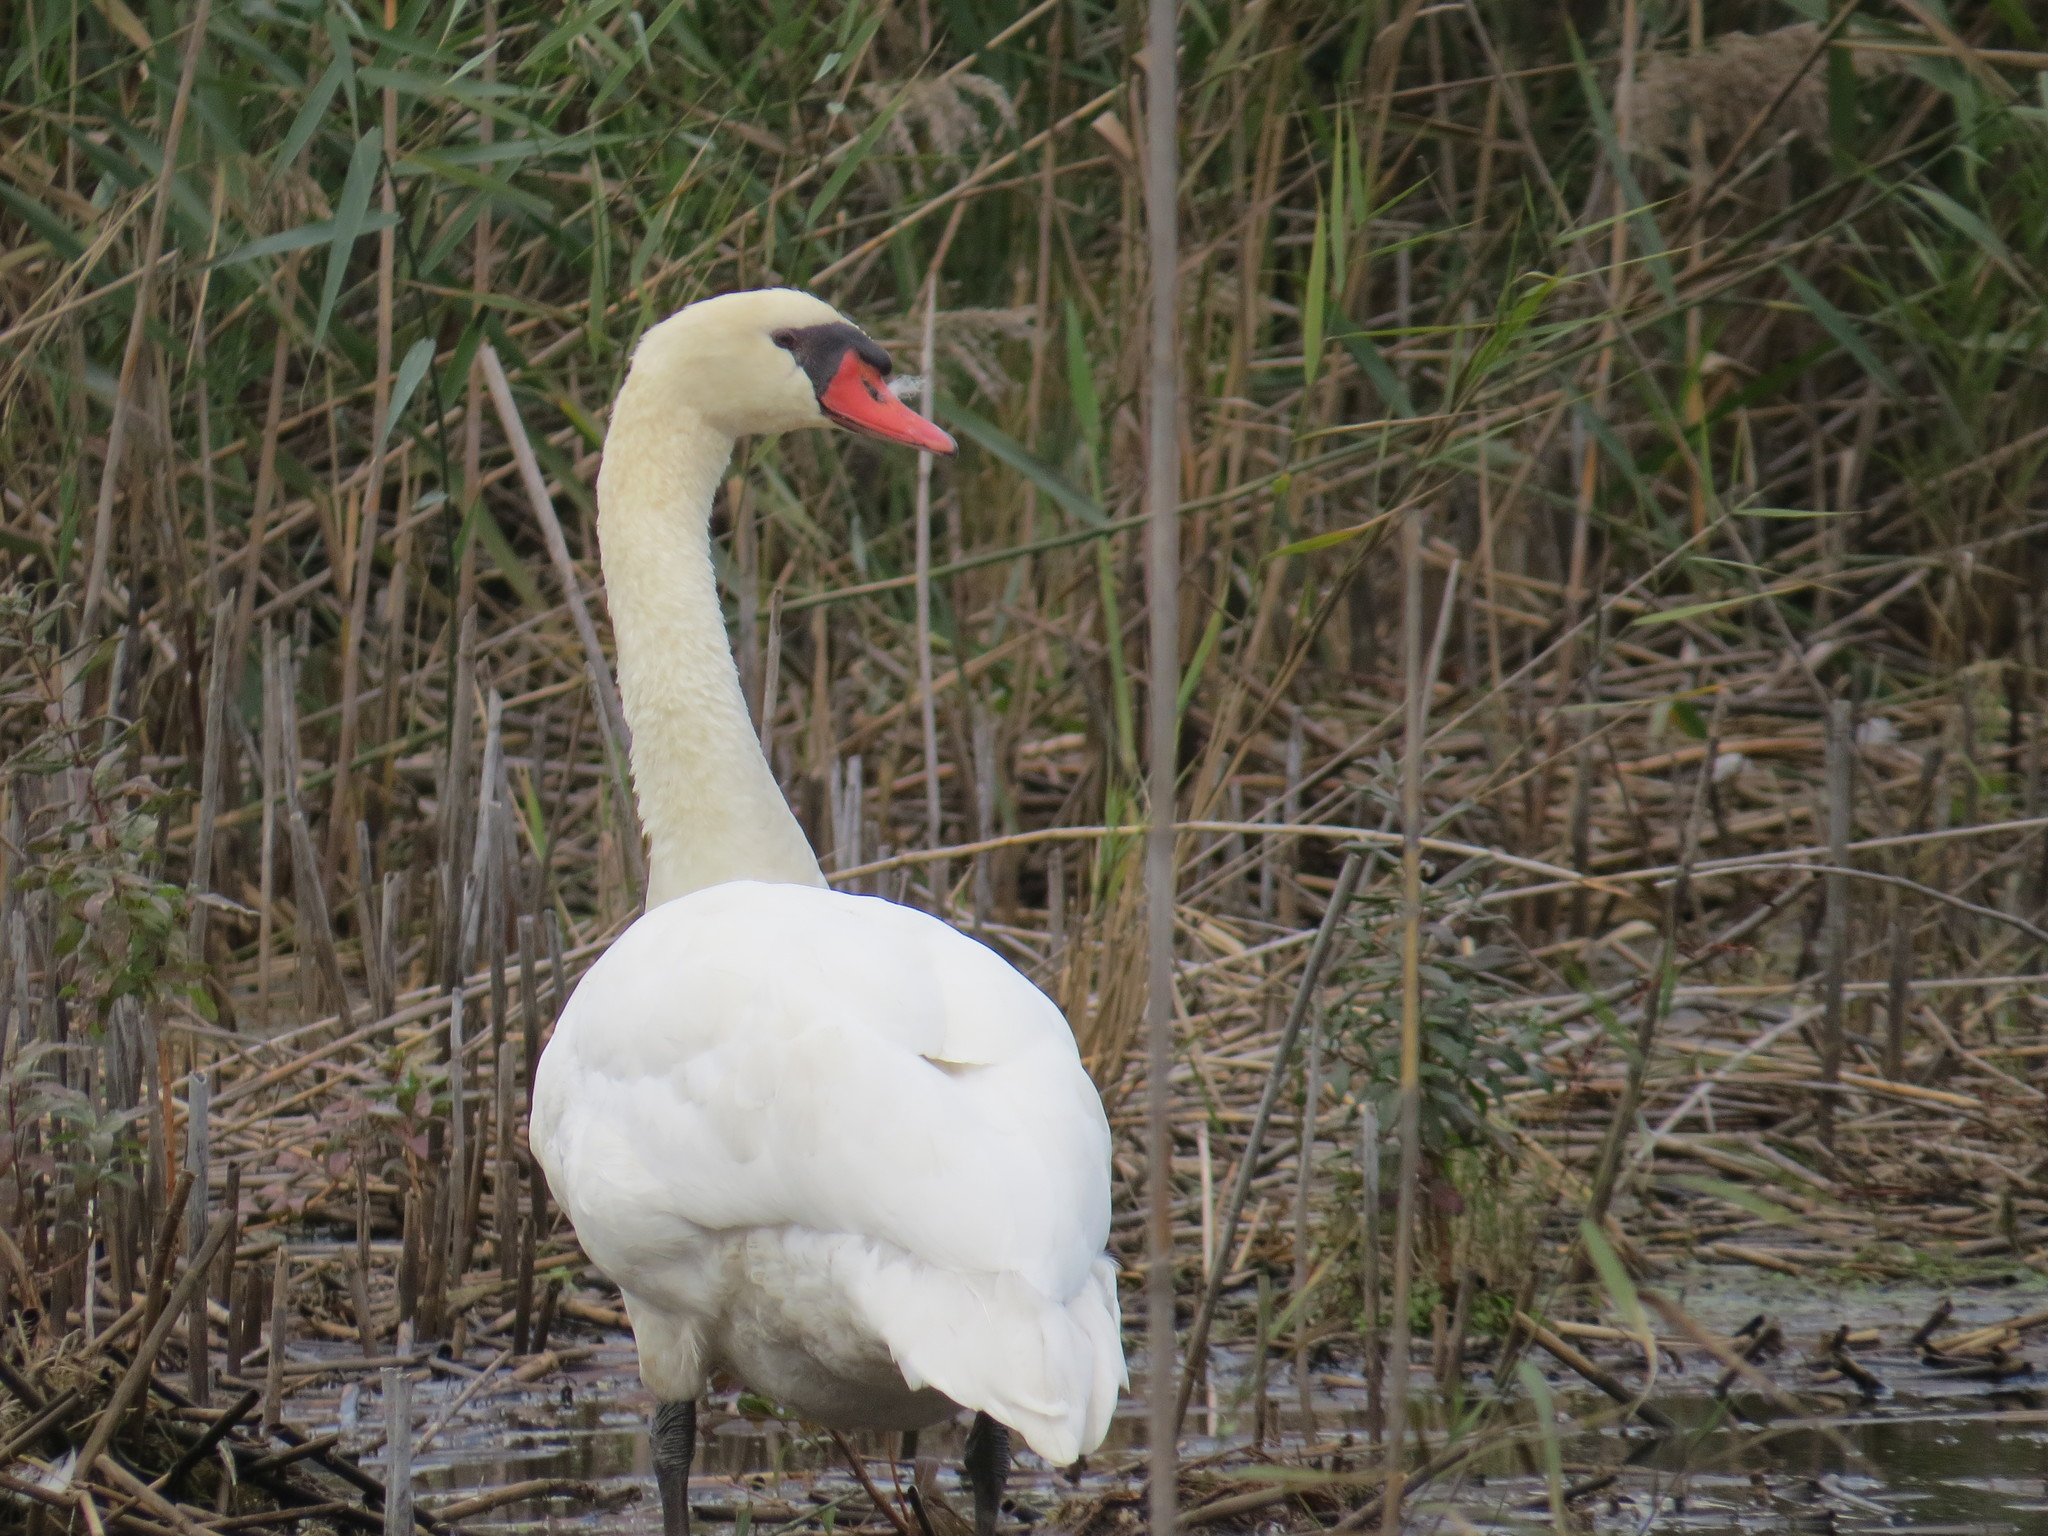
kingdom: Animalia
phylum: Chordata
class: Aves
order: Anseriformes
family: Anatidae
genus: Cygnus
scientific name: Cygnus olor
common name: Mute swan
